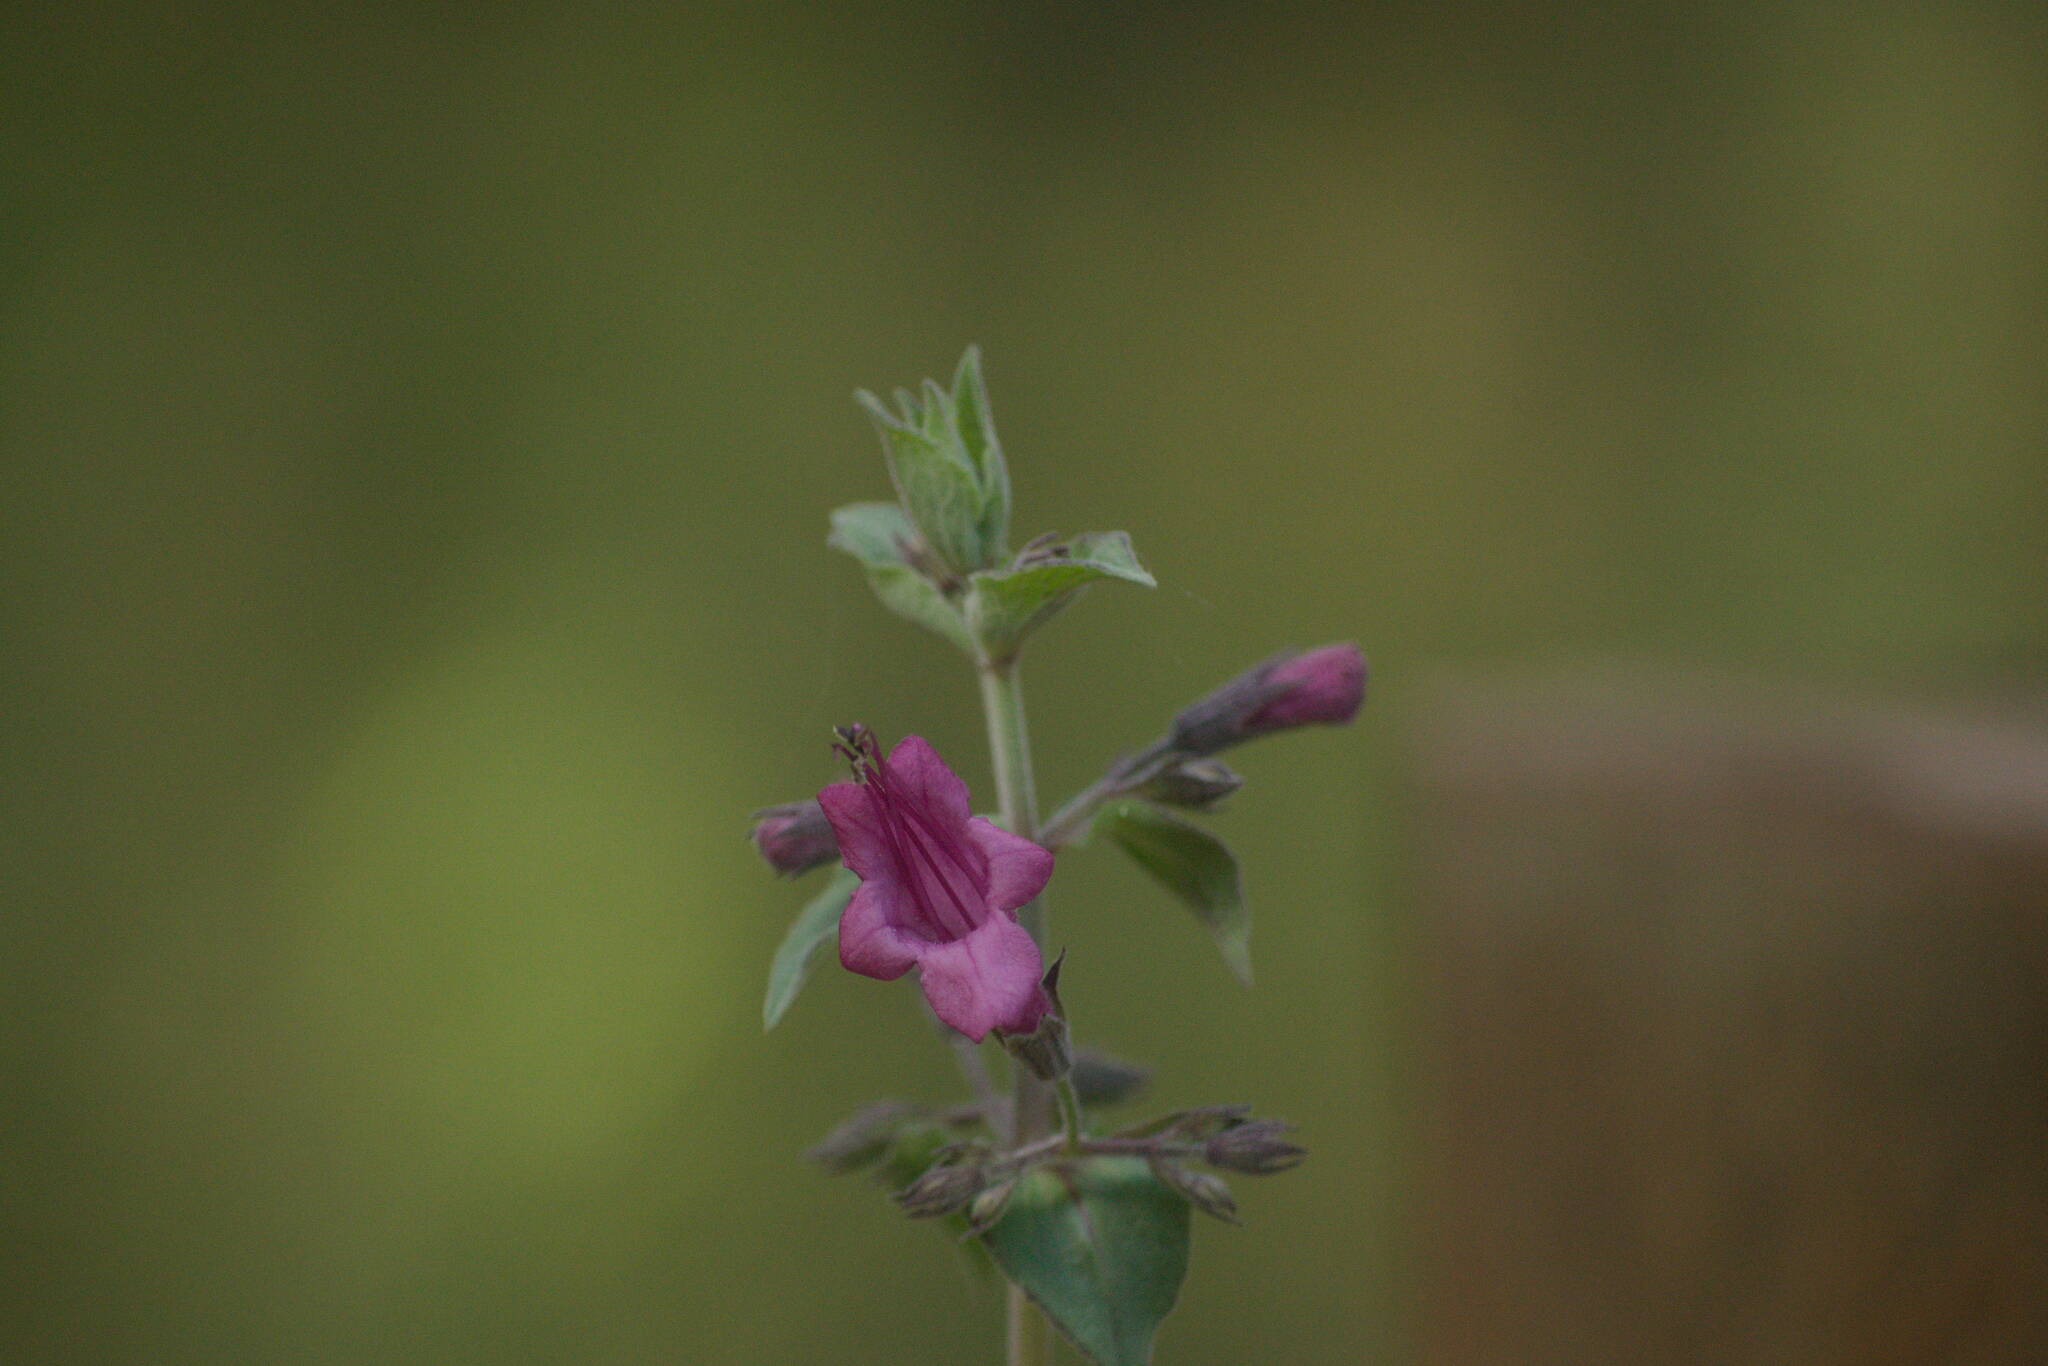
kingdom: Plantae
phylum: Tracheophyta
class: Magnoliopsida
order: Lamiales
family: Lamiaceae
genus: Lepechinia
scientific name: Lepechinia hastata
